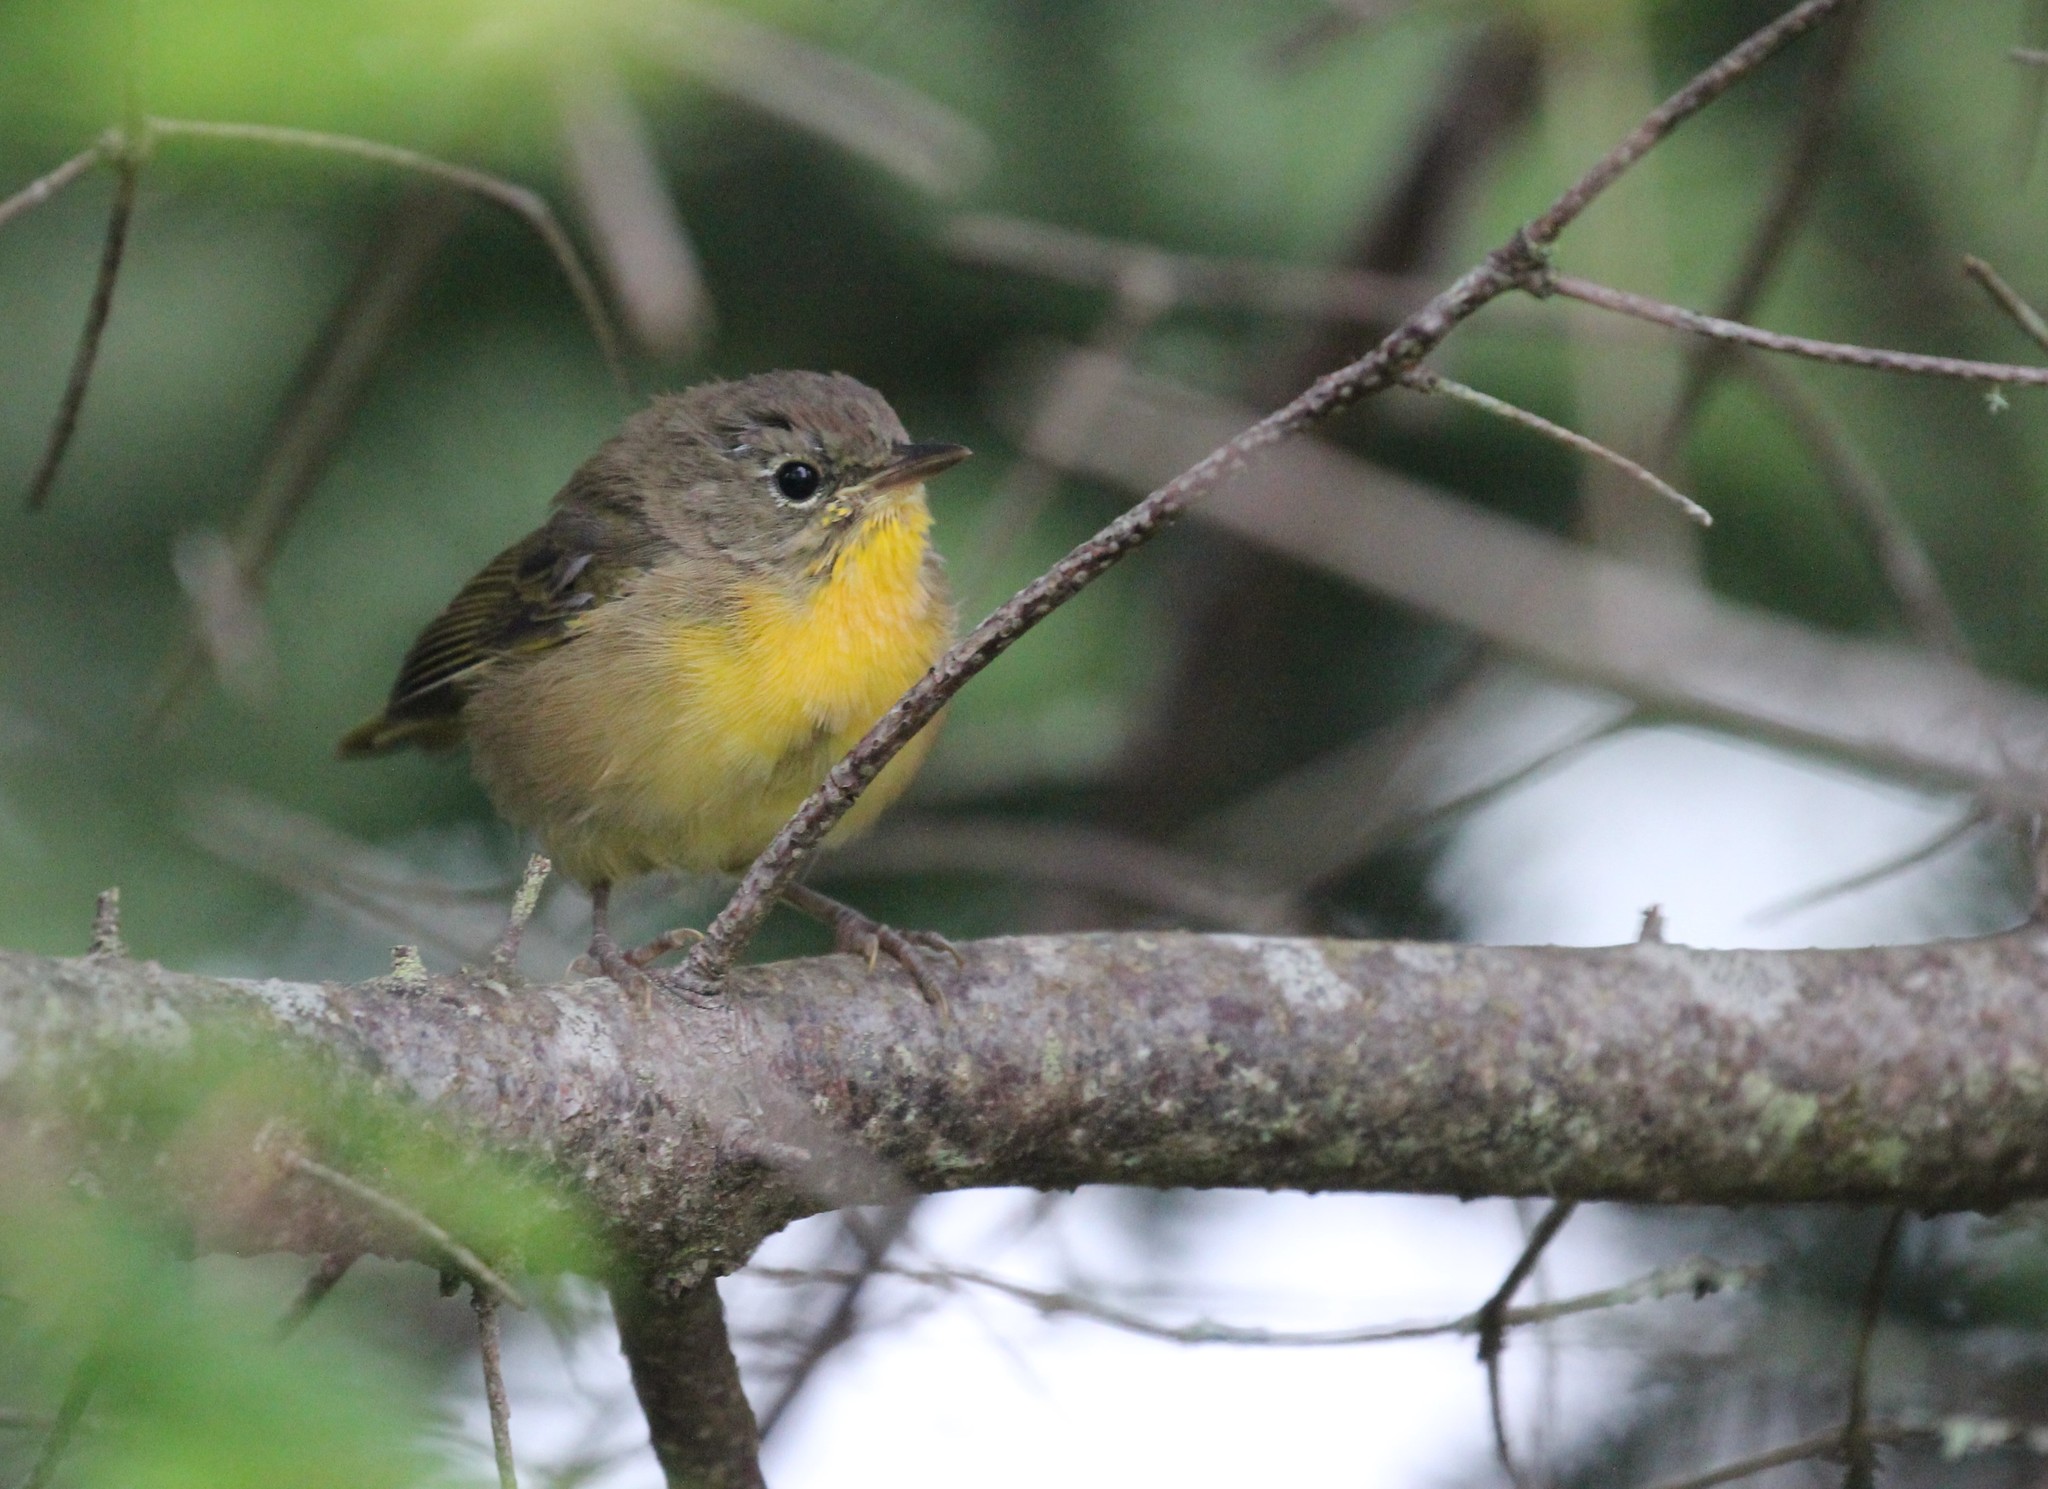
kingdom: Animalia
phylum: Chordata
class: Aves
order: Passeriformes
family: Parulidae
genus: Geothlypis
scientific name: Geothlypis trichas
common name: Common yellowthroat
